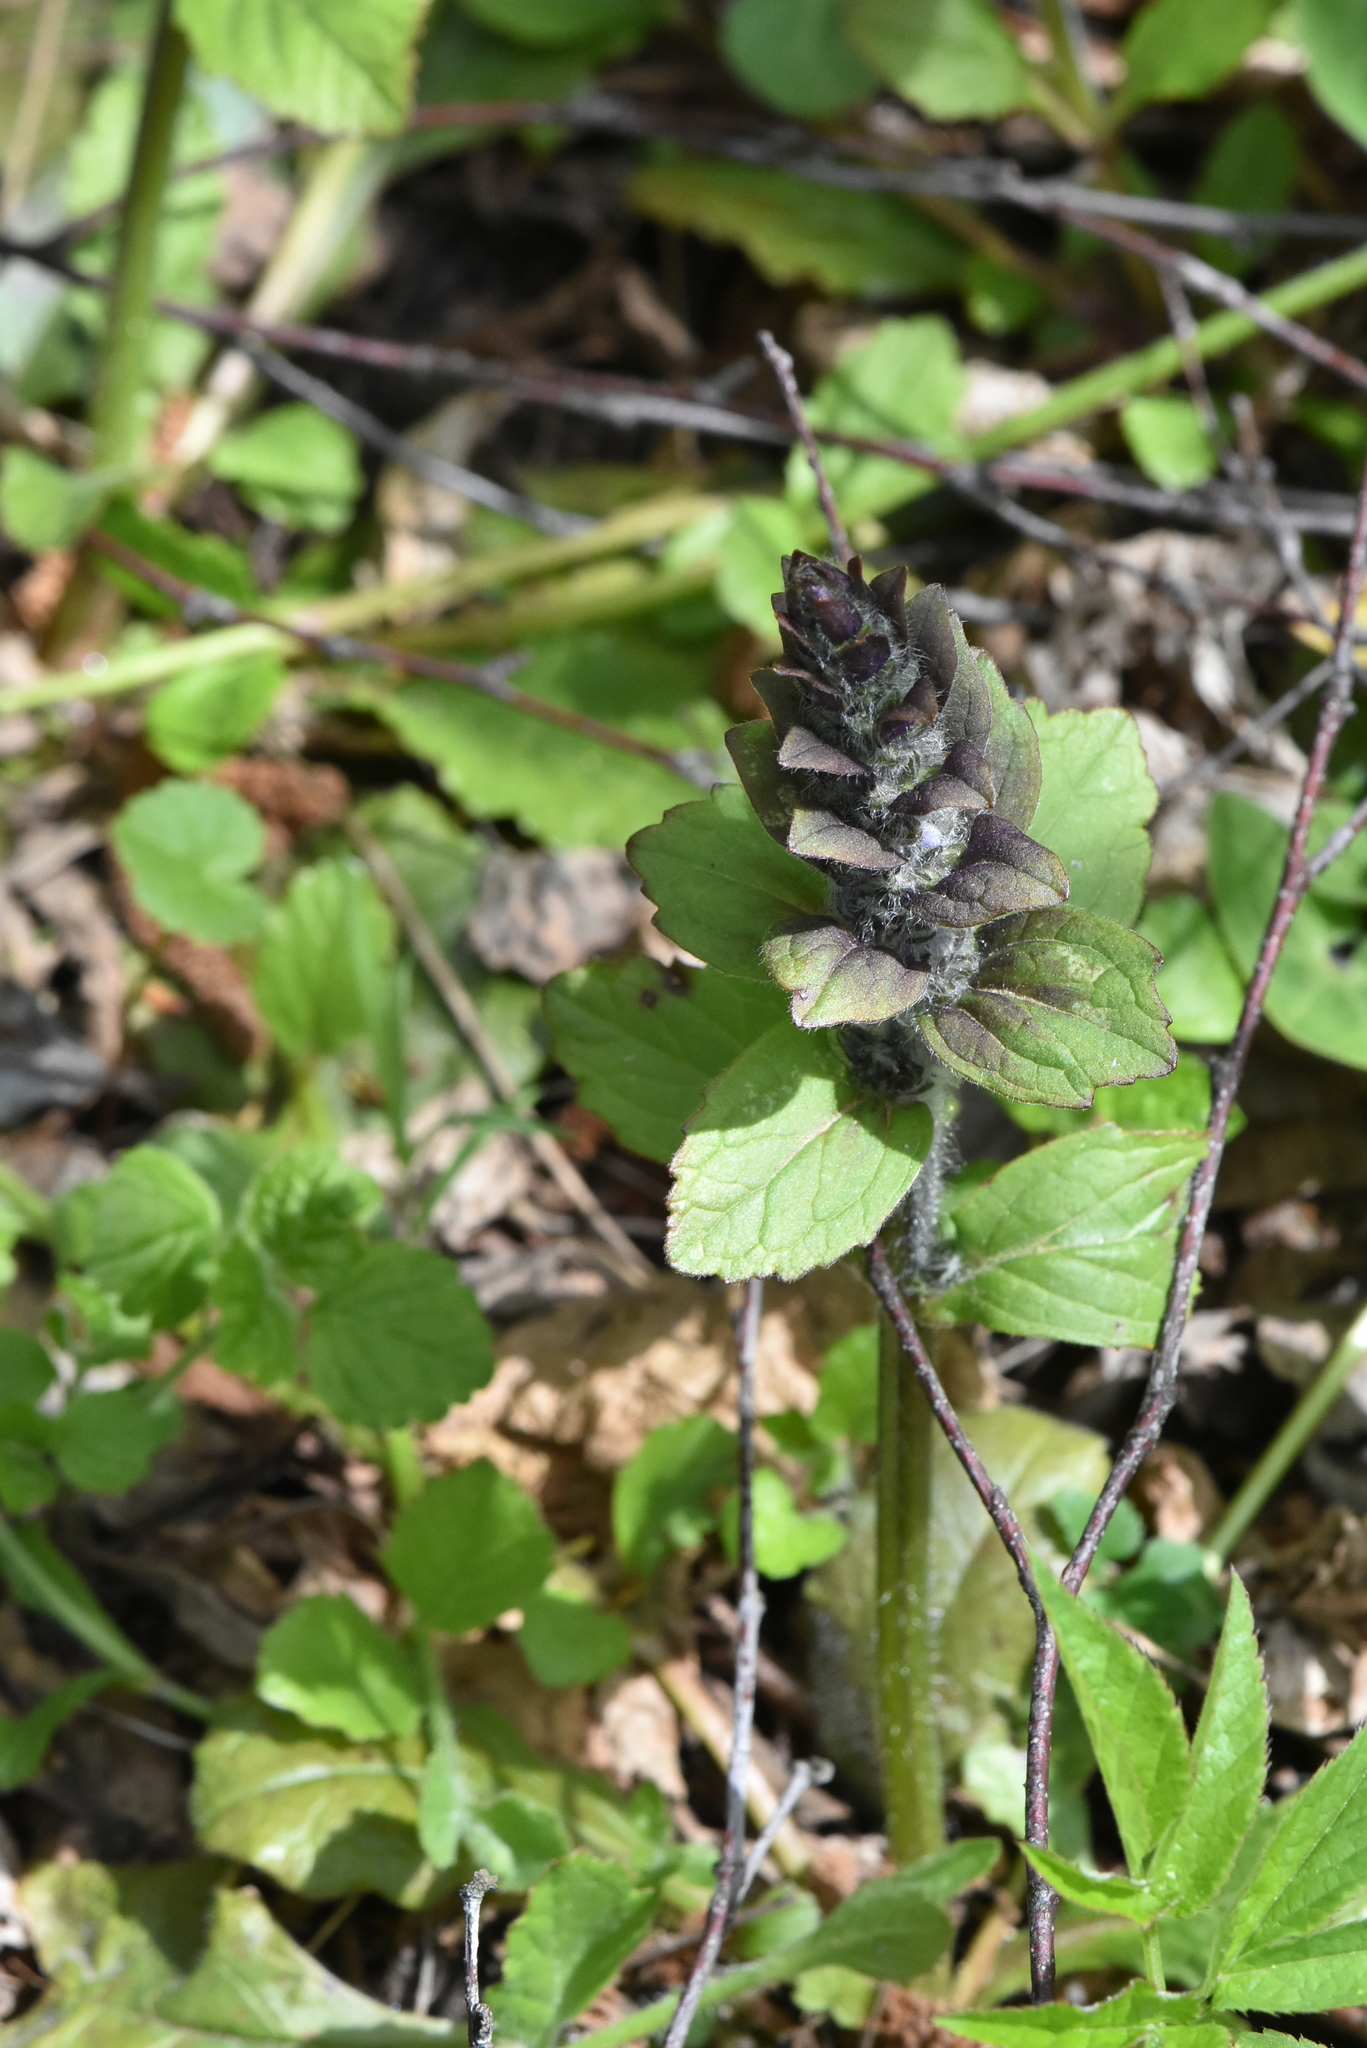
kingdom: Plantae
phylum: Tracheophyta
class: Magnoliopsida
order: Lamiales
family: Lamiaceae
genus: Ajuga
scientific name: Ajuga reptans
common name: Bugle
